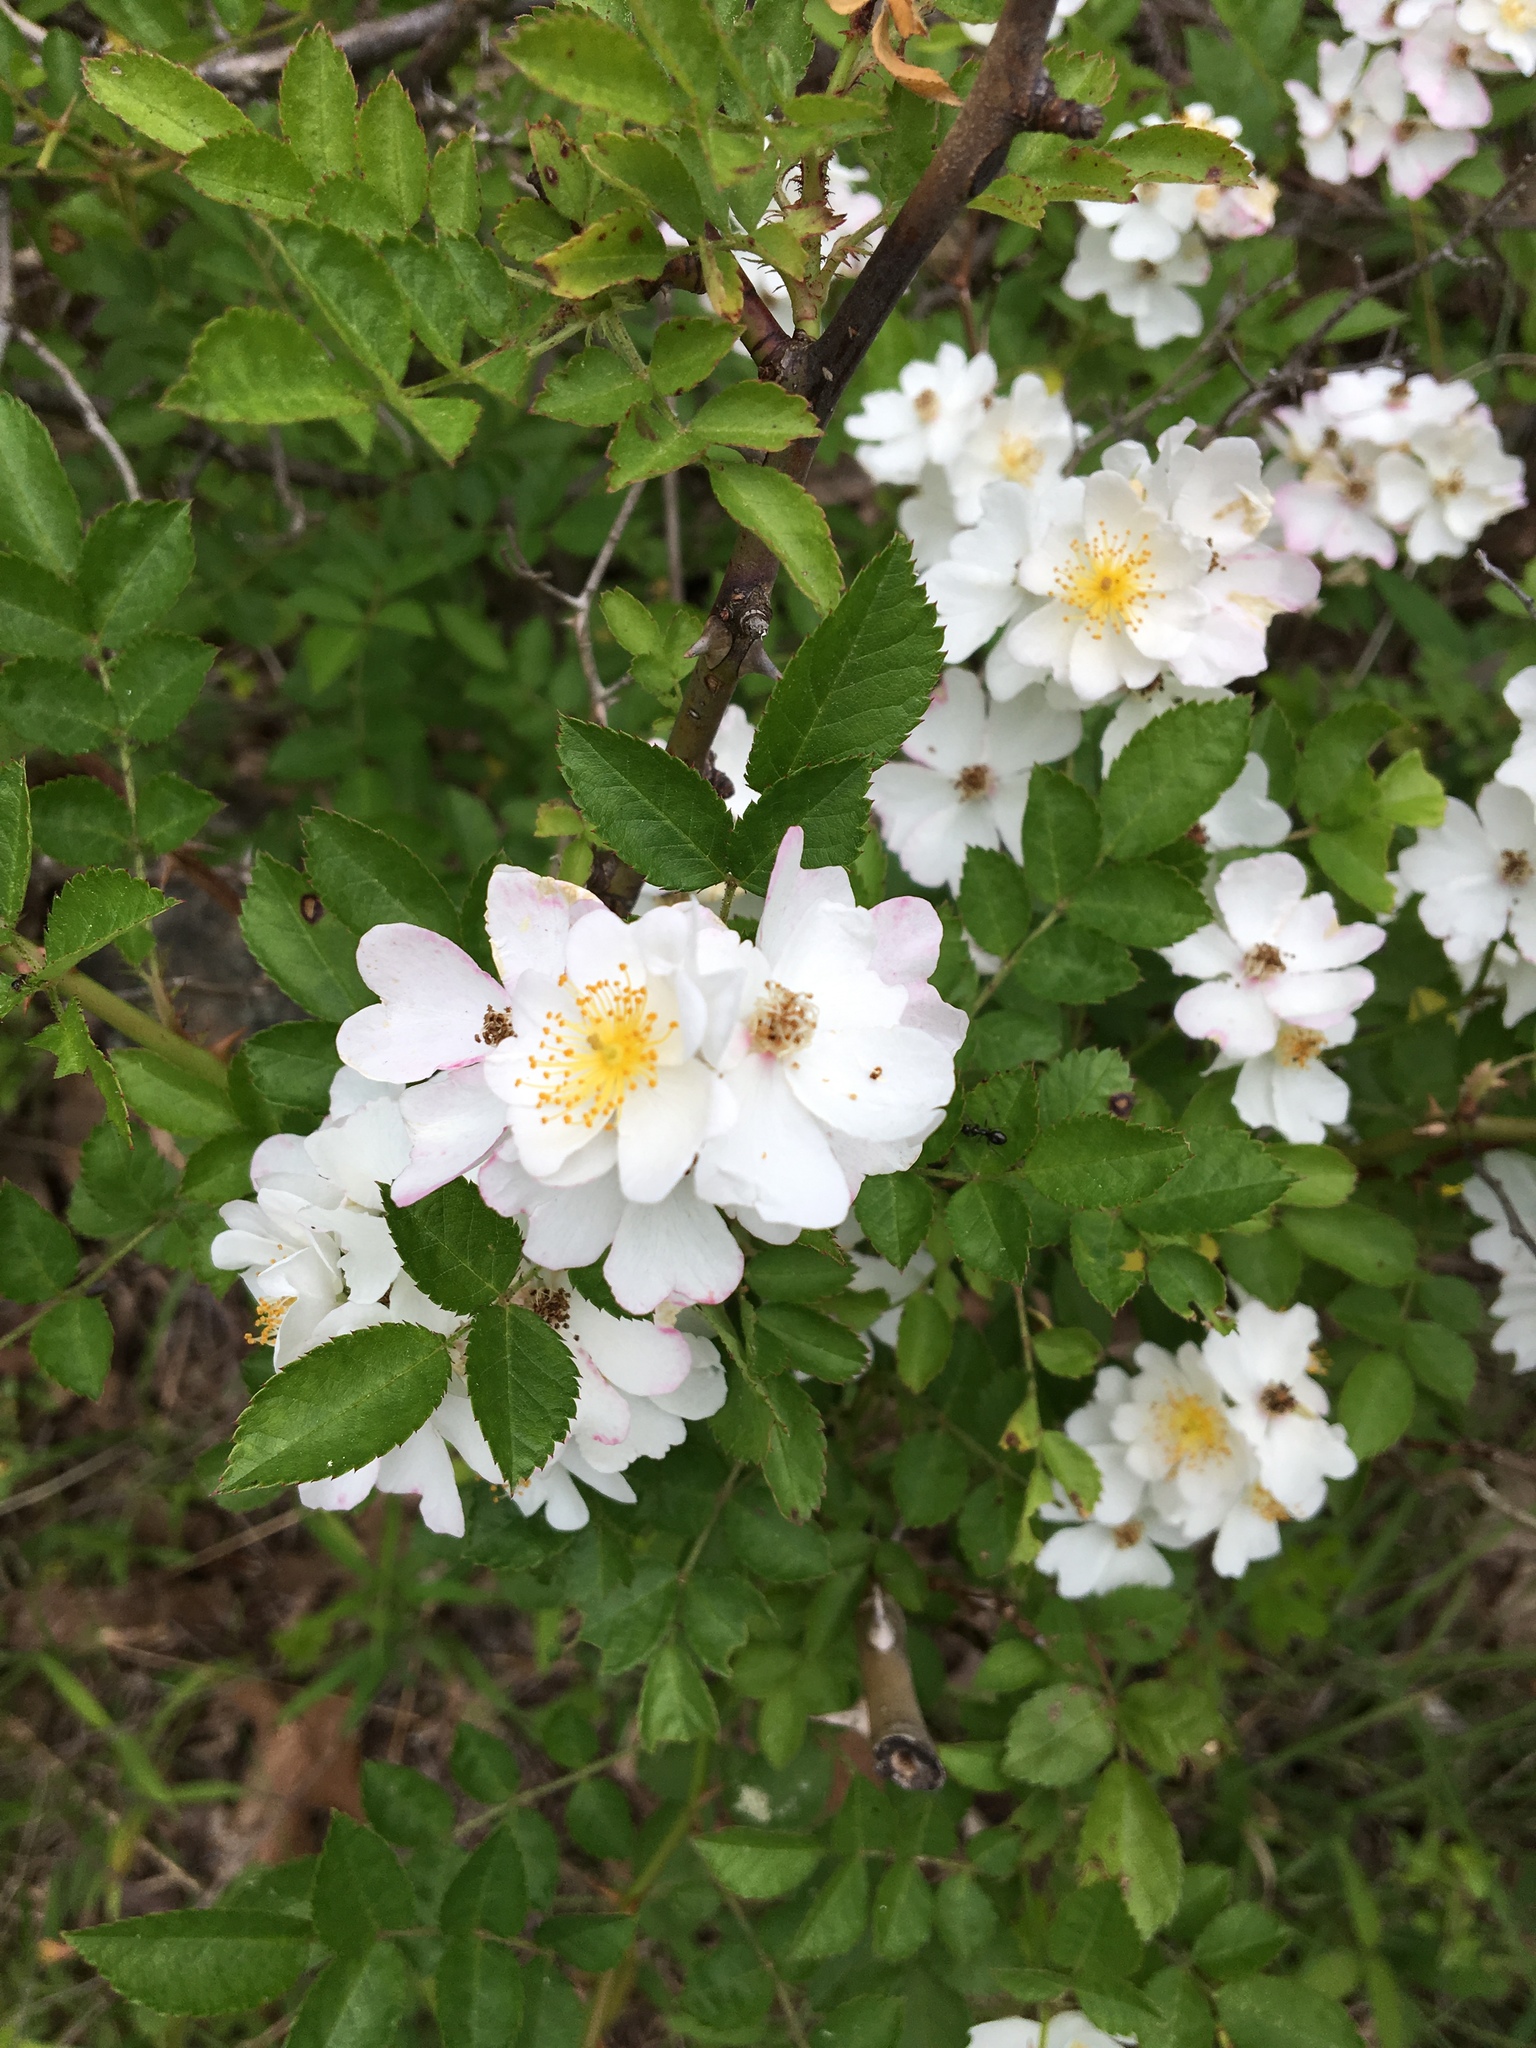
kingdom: Plantae
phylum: Tracheophyta
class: Magnoliopsida
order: Rosales
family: Rosaceae
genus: Rosa
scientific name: Rosa multiflora
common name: Multiflora rose
